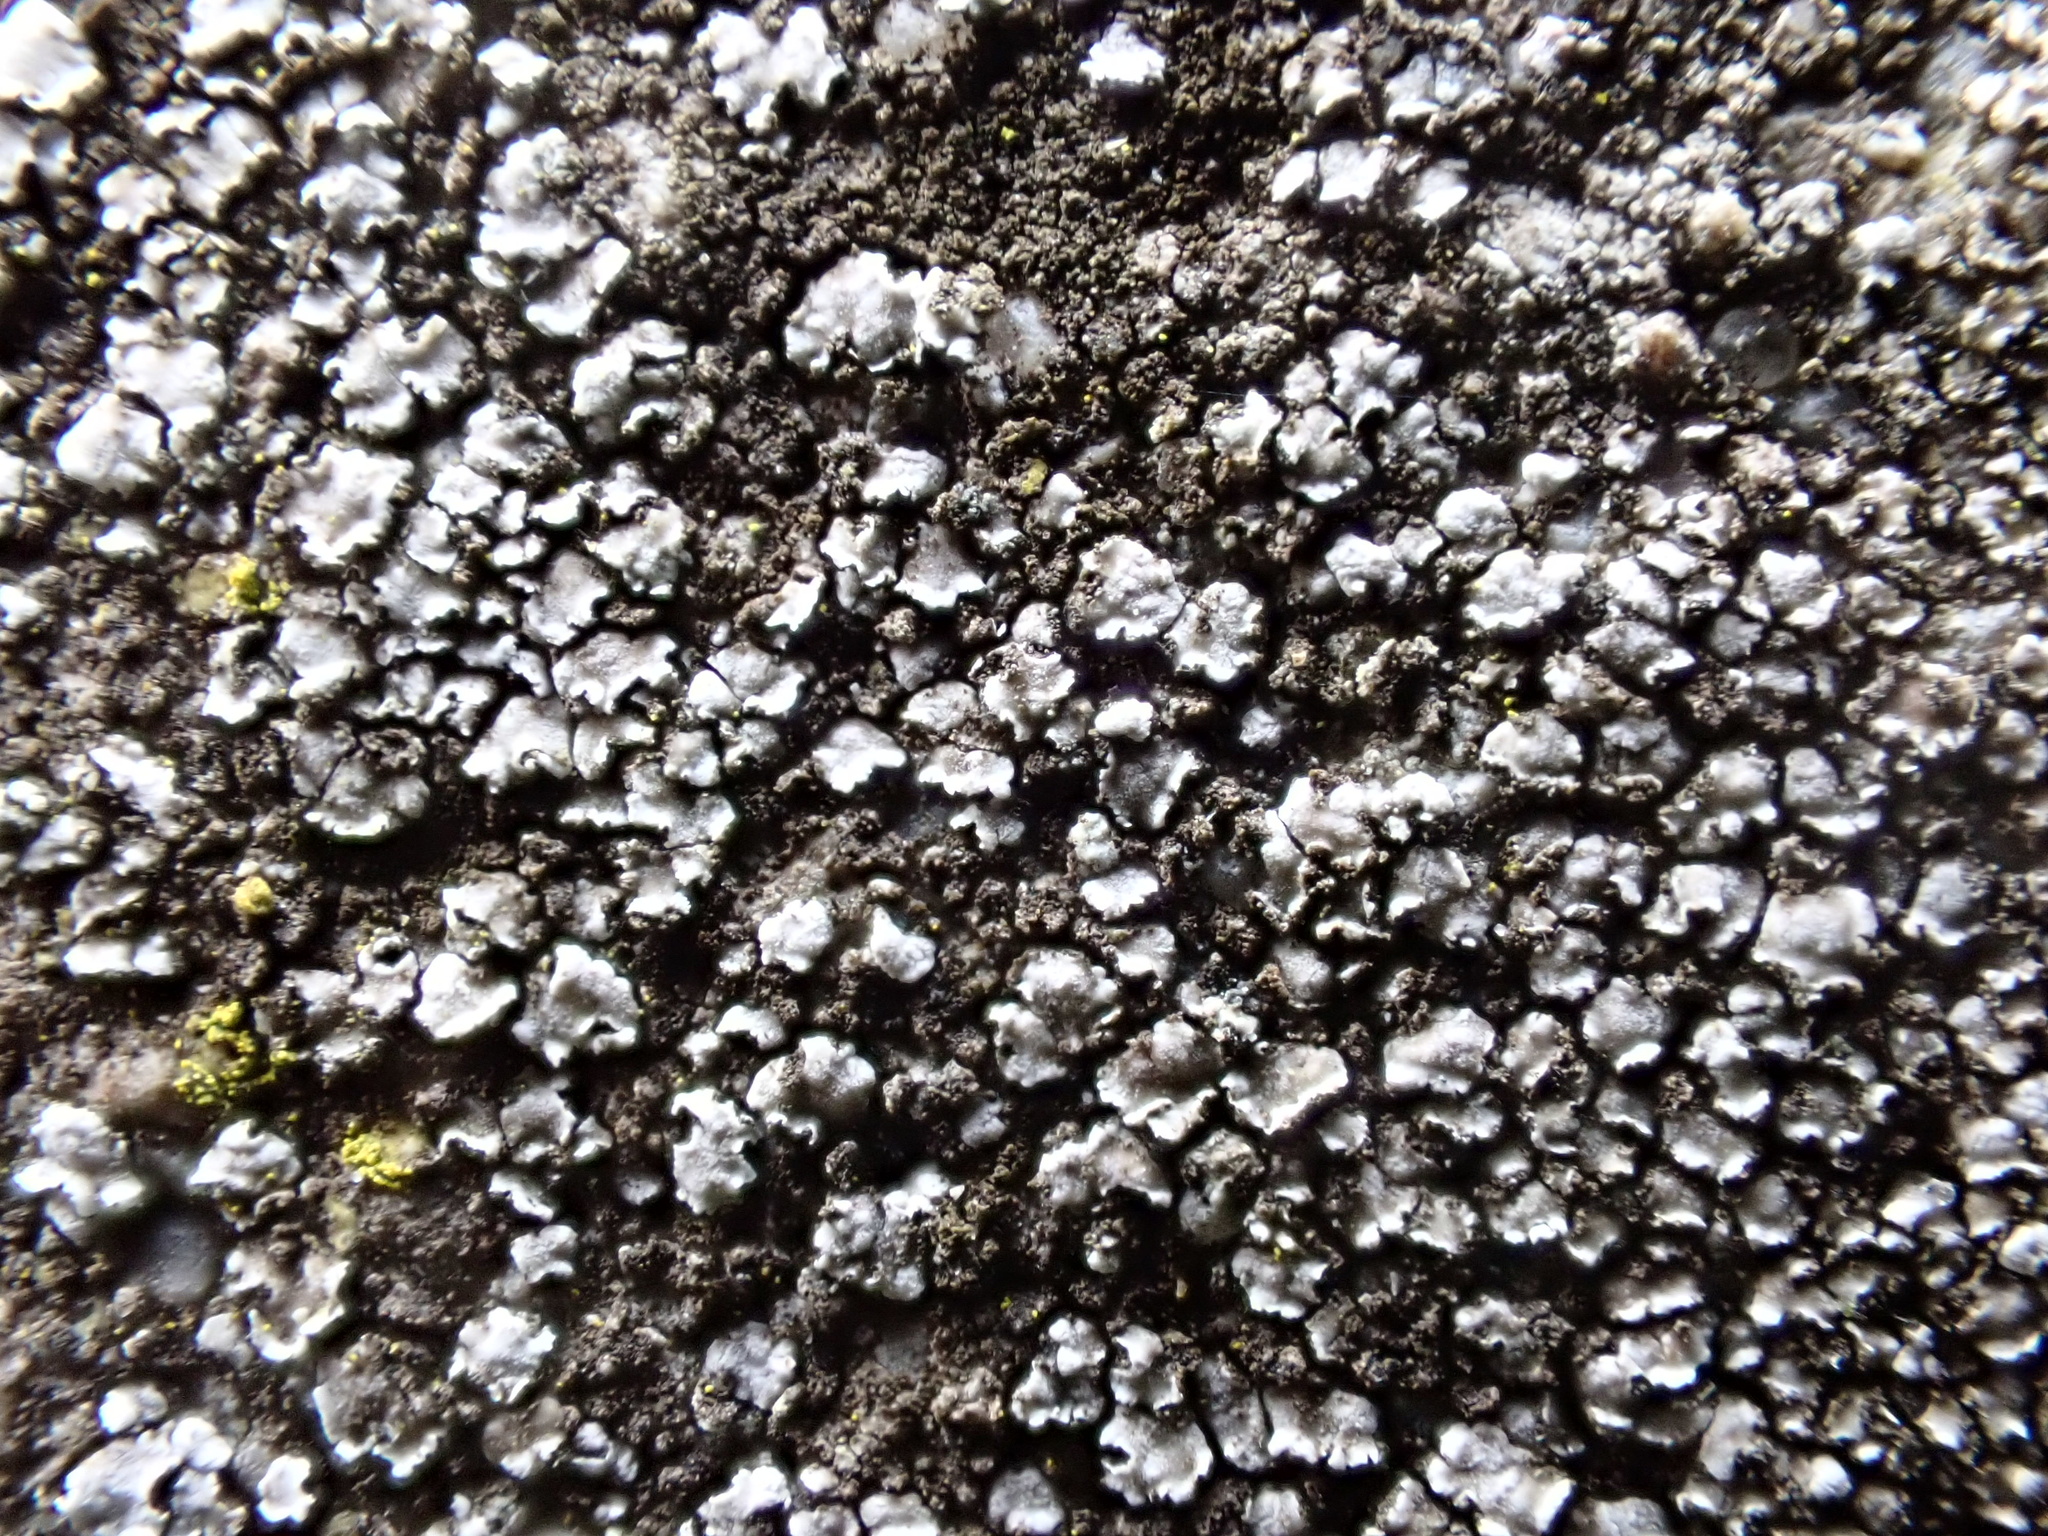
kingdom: Fungi
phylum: Ascomycota
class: Lecanoromycetes
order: Acarosporales
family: Acarosporaceae
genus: Acarospora
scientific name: Acarospora moenium
